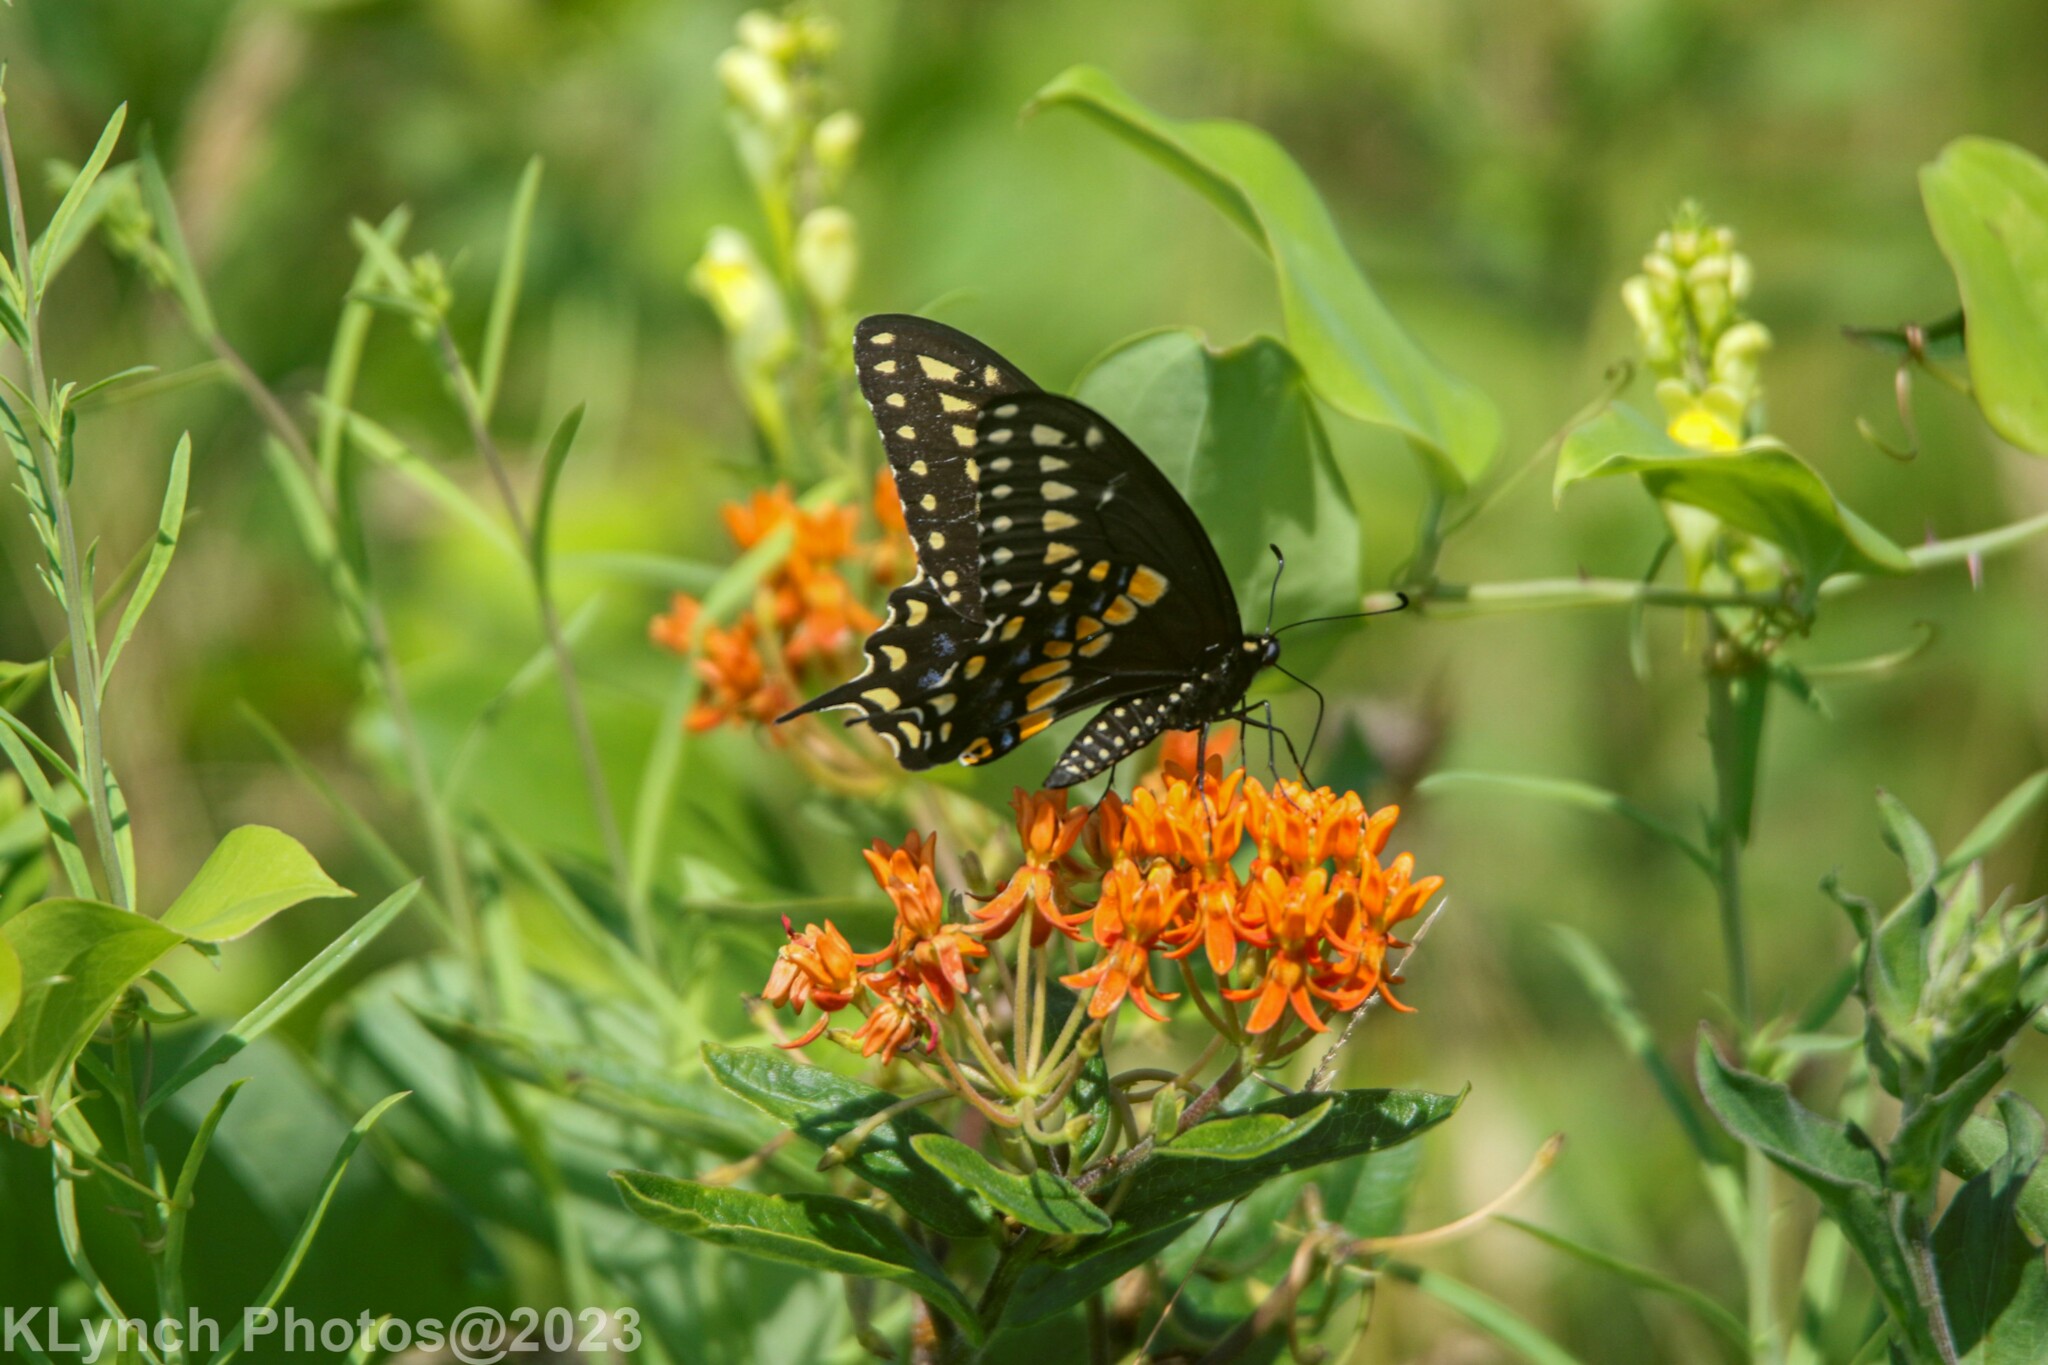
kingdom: Animalia
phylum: Arthropoda
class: Insecta
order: Lepidoptera
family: Papilionidae
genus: Papilio
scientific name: Papilio polyxenes
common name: Black swallowtail
